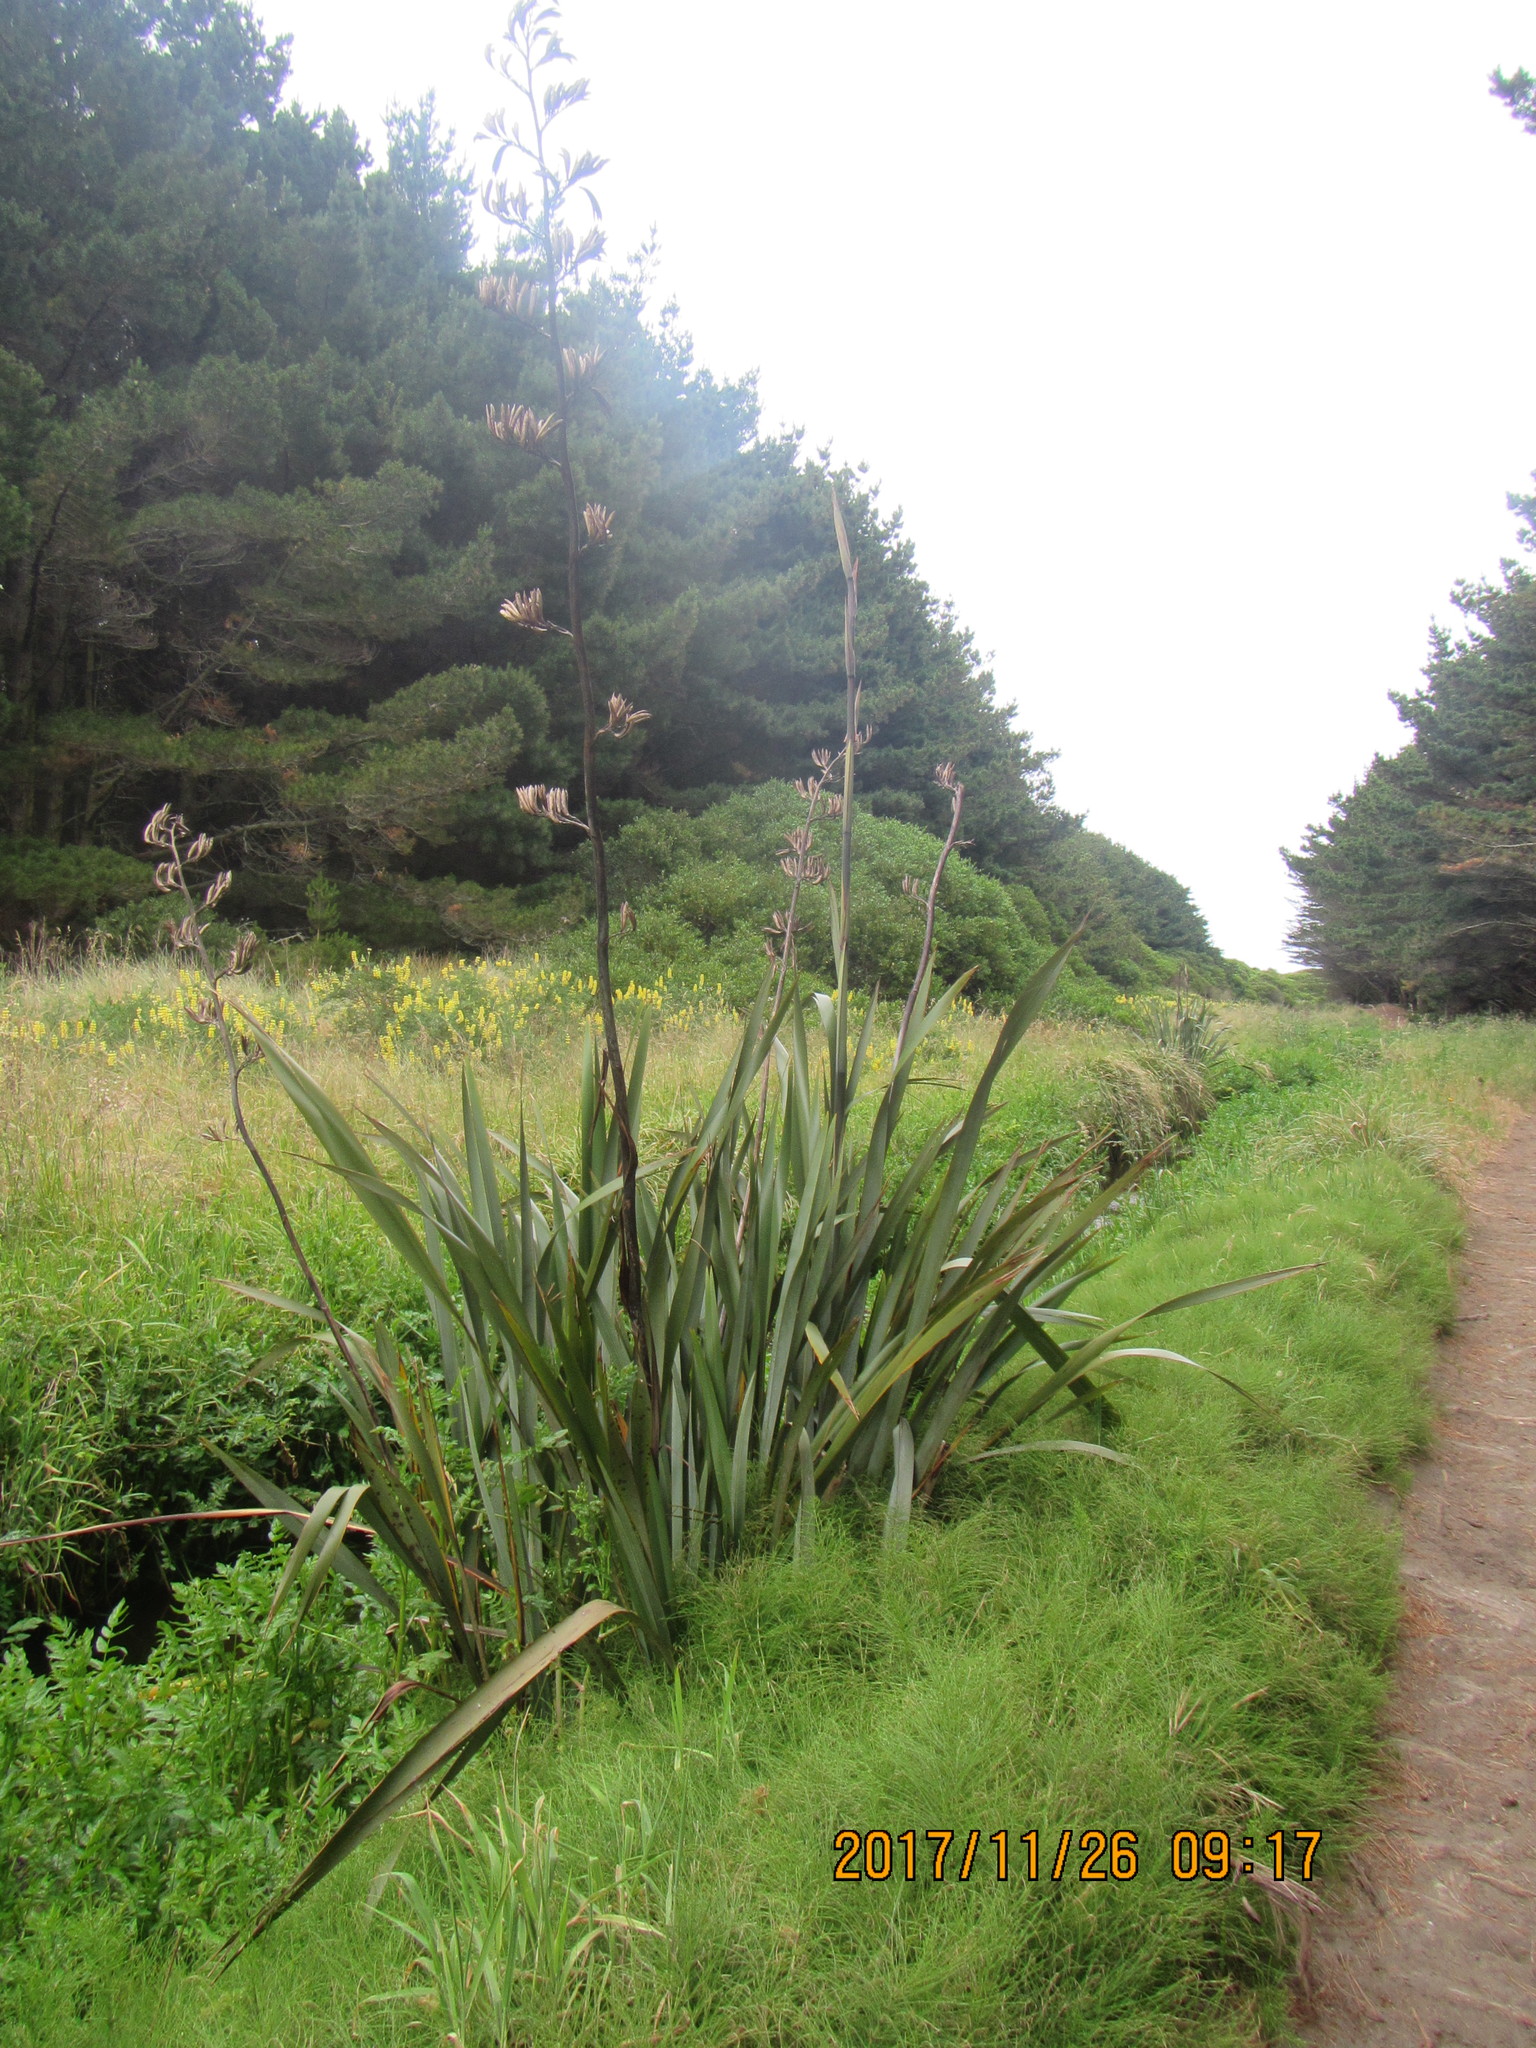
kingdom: Plantae
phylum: Tracheophyta
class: Liliopsida
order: Asparagales
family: Asphodelaceae
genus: Phormium
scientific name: Phormium tenax
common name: New zealand flax
